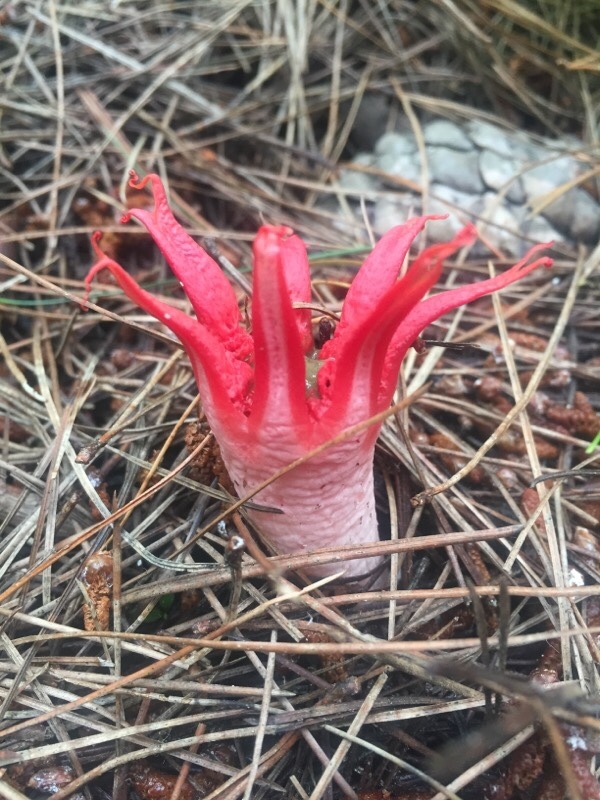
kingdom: Fungi
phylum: Basidiomycota
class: Agaricomycetes
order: Phallales
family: Phallaceae
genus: Aseroe
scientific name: Aseroe rubra
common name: Starfish fungus
